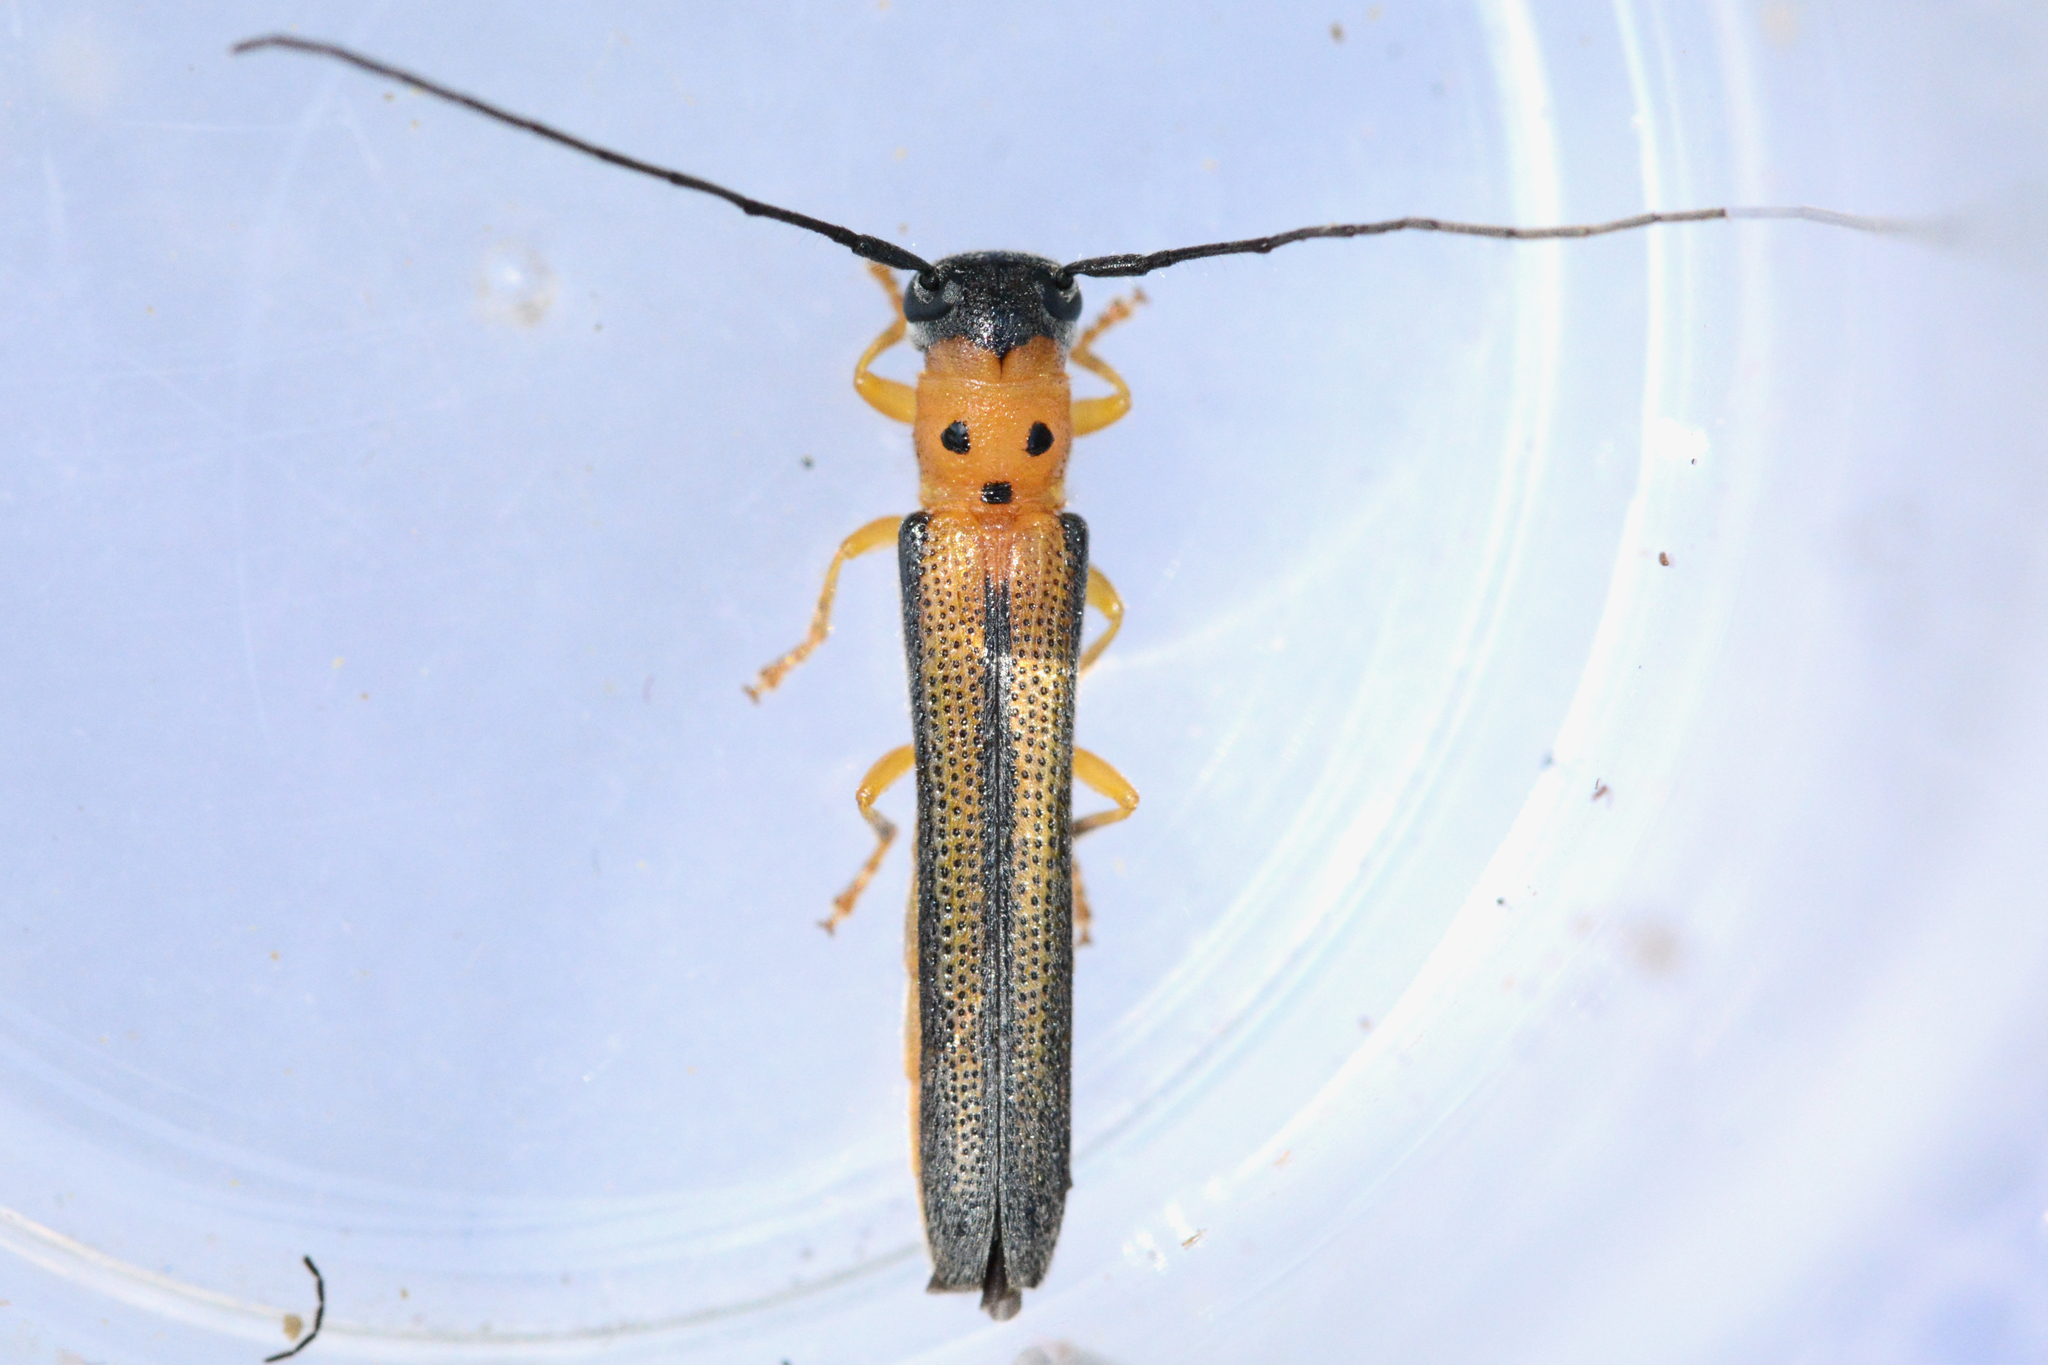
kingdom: Animalia
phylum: Arthropoda
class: Insecta
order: Coleoptera
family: Cerambycidae
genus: Oberea
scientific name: Oberea tripunctata
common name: Dogwood twig borer
